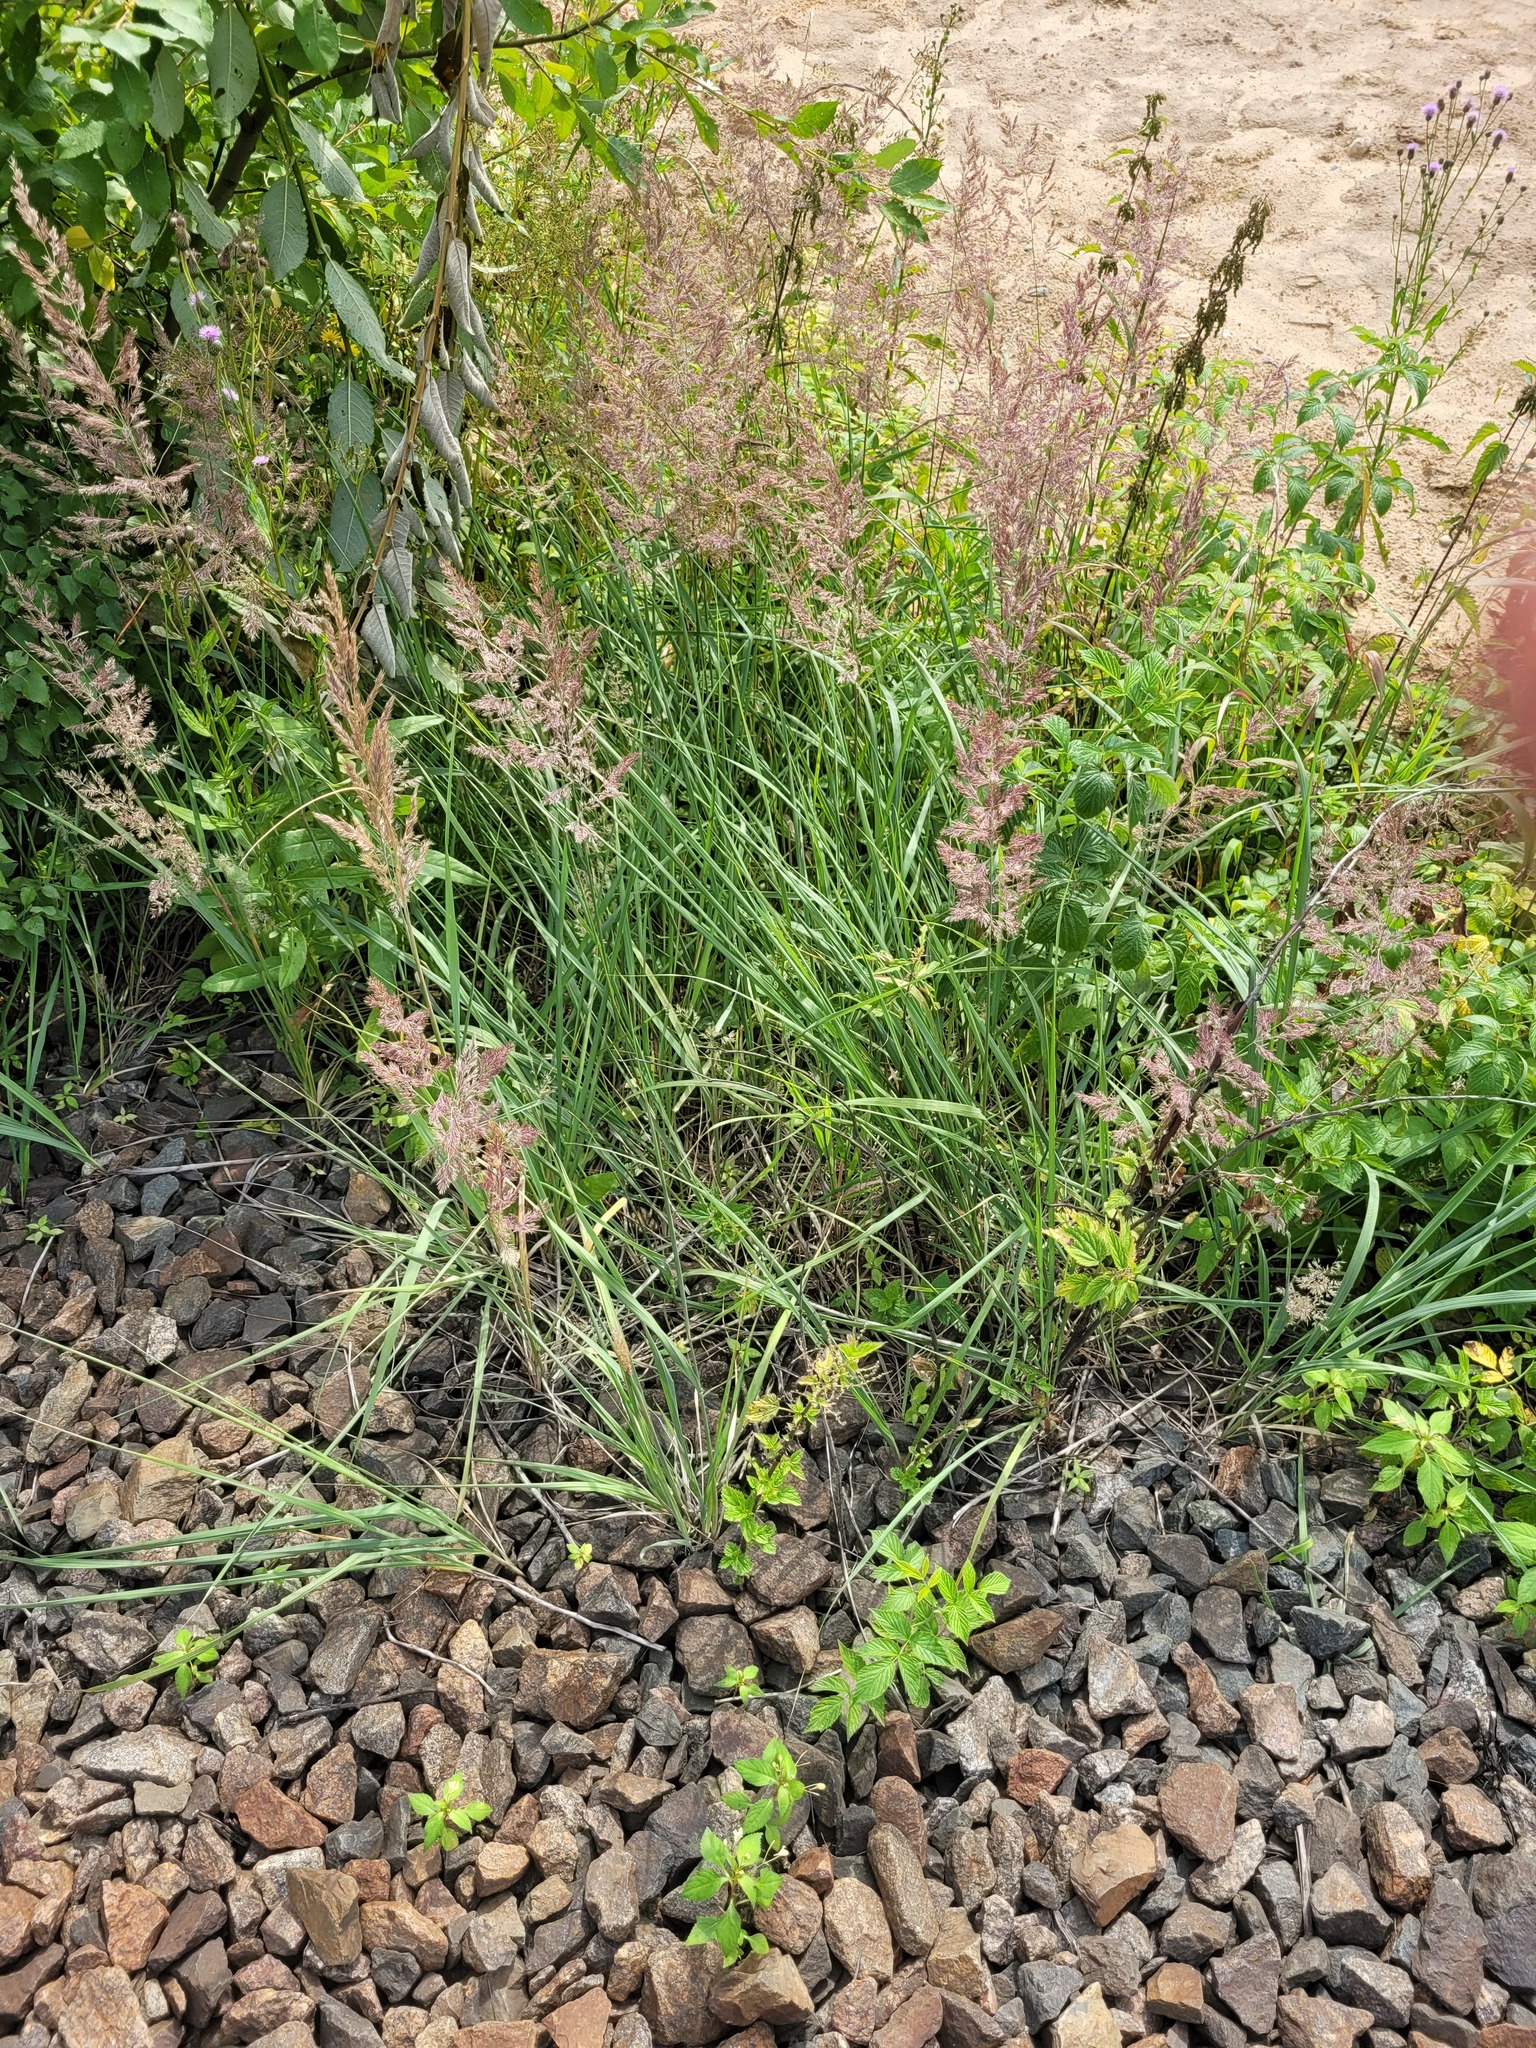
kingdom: Plantae
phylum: Tracheophyta
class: Liliopsida
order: Poales
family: Poaceae
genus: Calamagrostis
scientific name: Calamagrostis epigejos
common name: Wood small-reed
